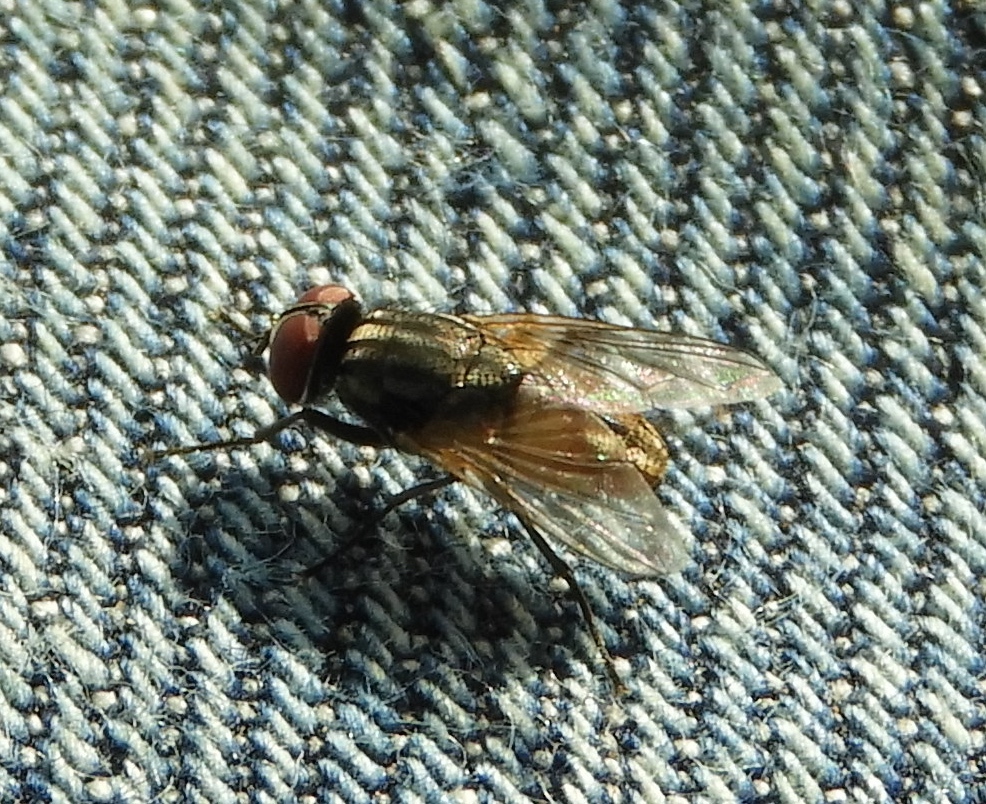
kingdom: Animalia
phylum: Arthropoda
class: Insecta
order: Diptera
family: Muscidae
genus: Musca
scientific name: Musca domestica
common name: House fly
